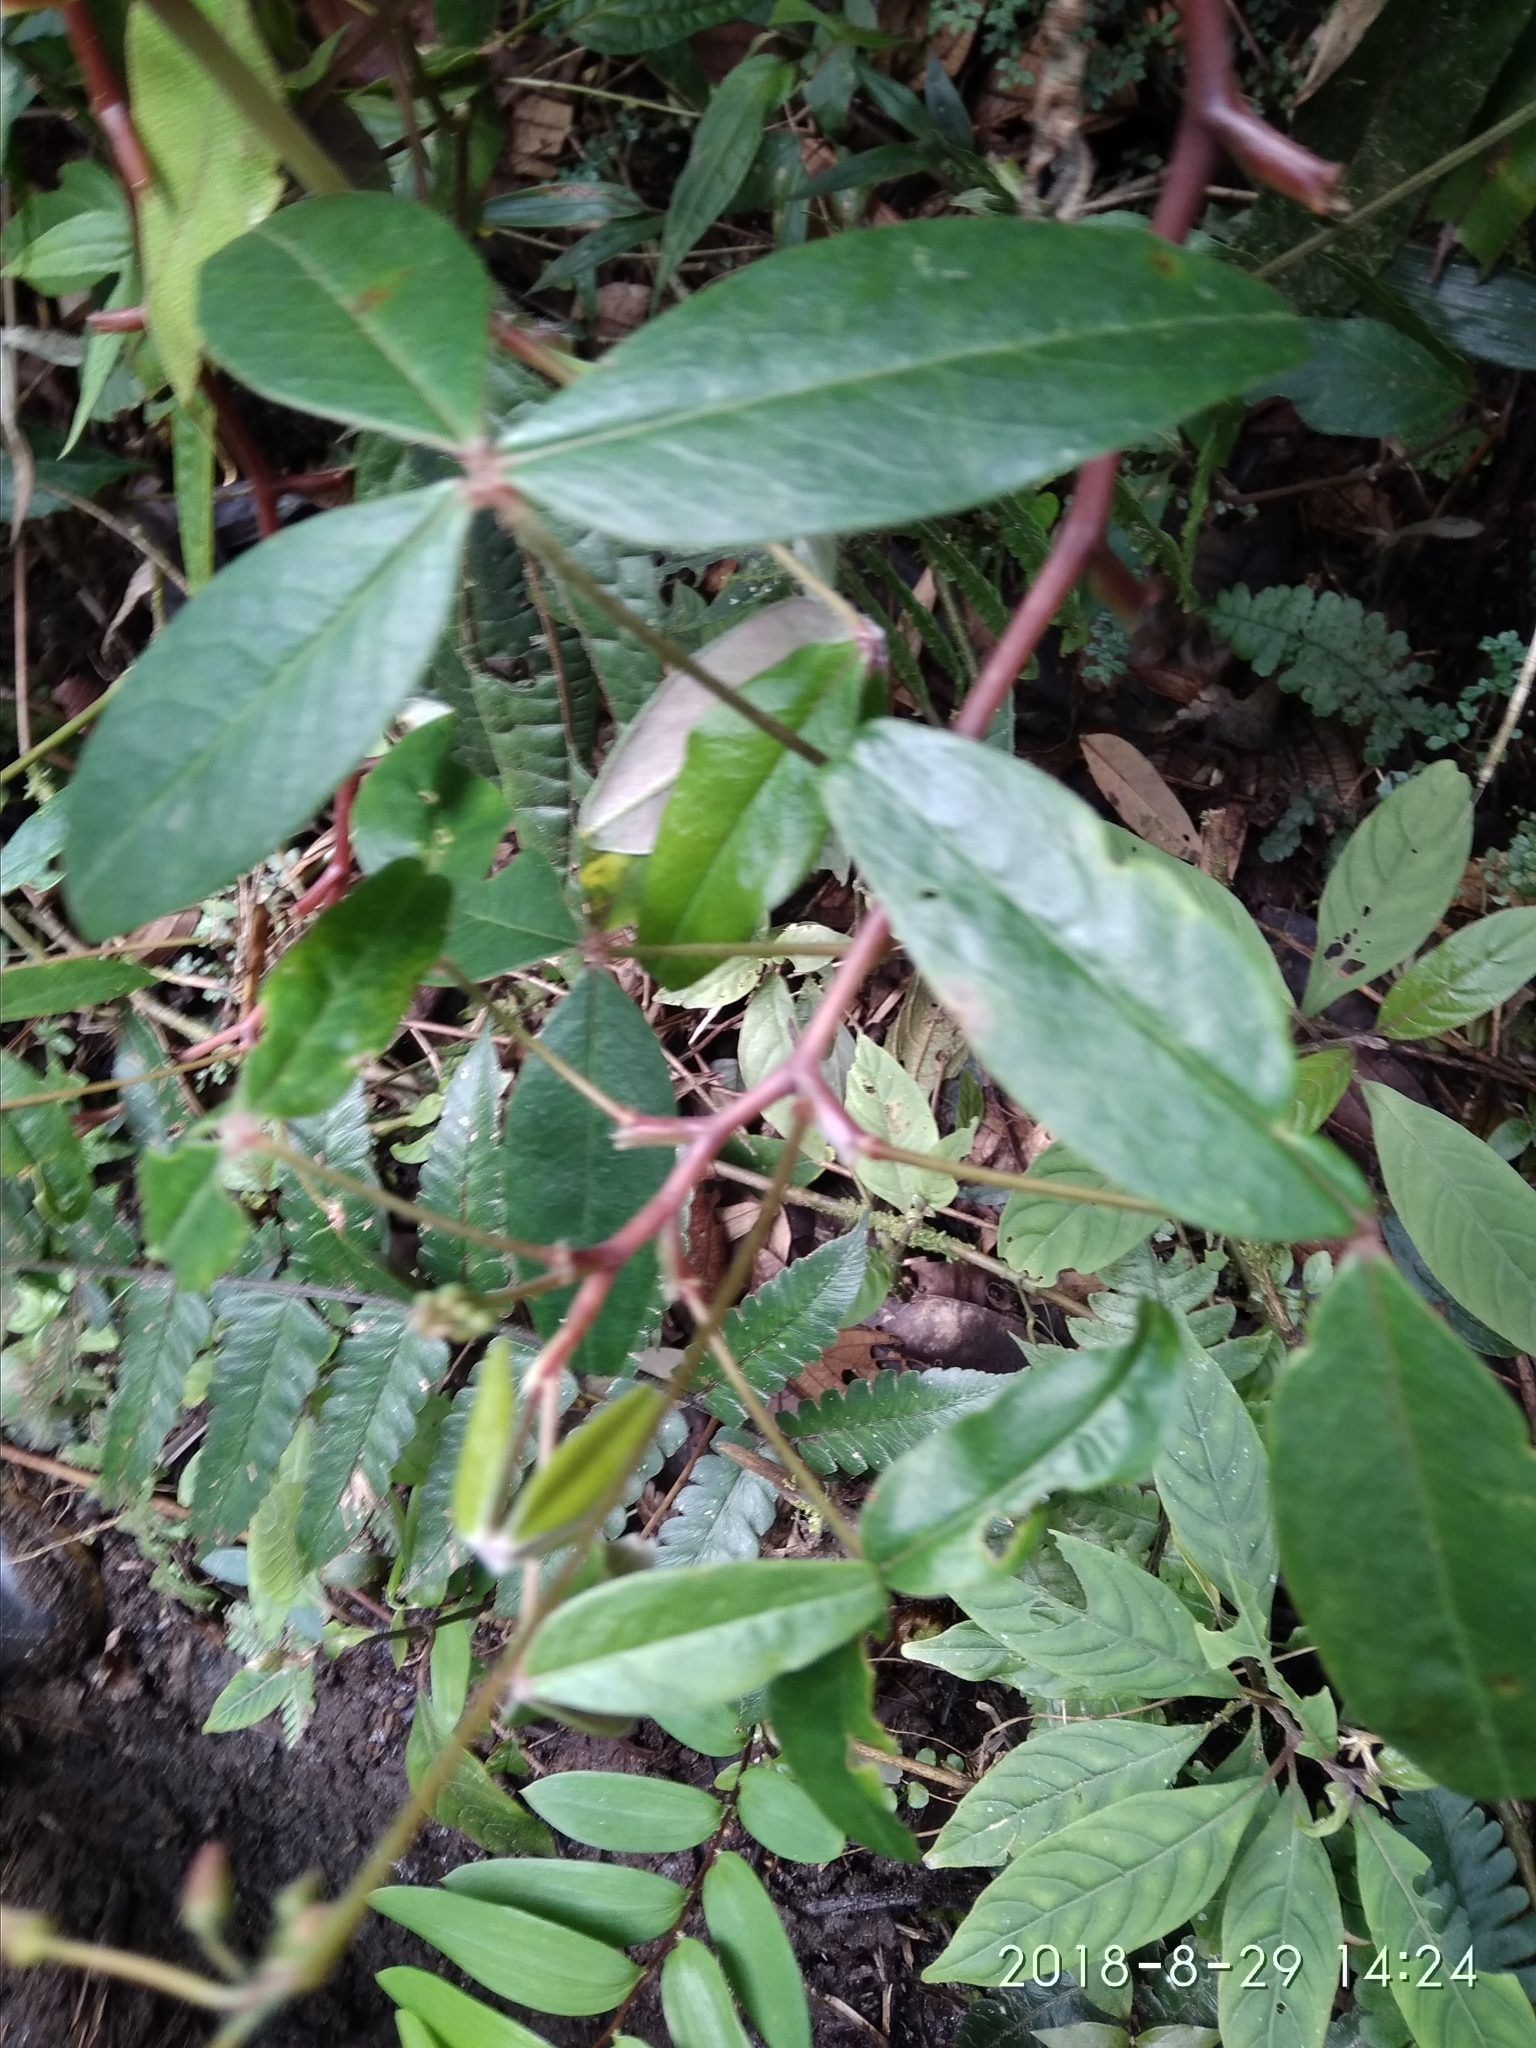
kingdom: Plantae
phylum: Tracheophyta
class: Magnoliopsida
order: Oxalidales
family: Oxalidaceae
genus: Oxalis
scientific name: Oxalis integra
